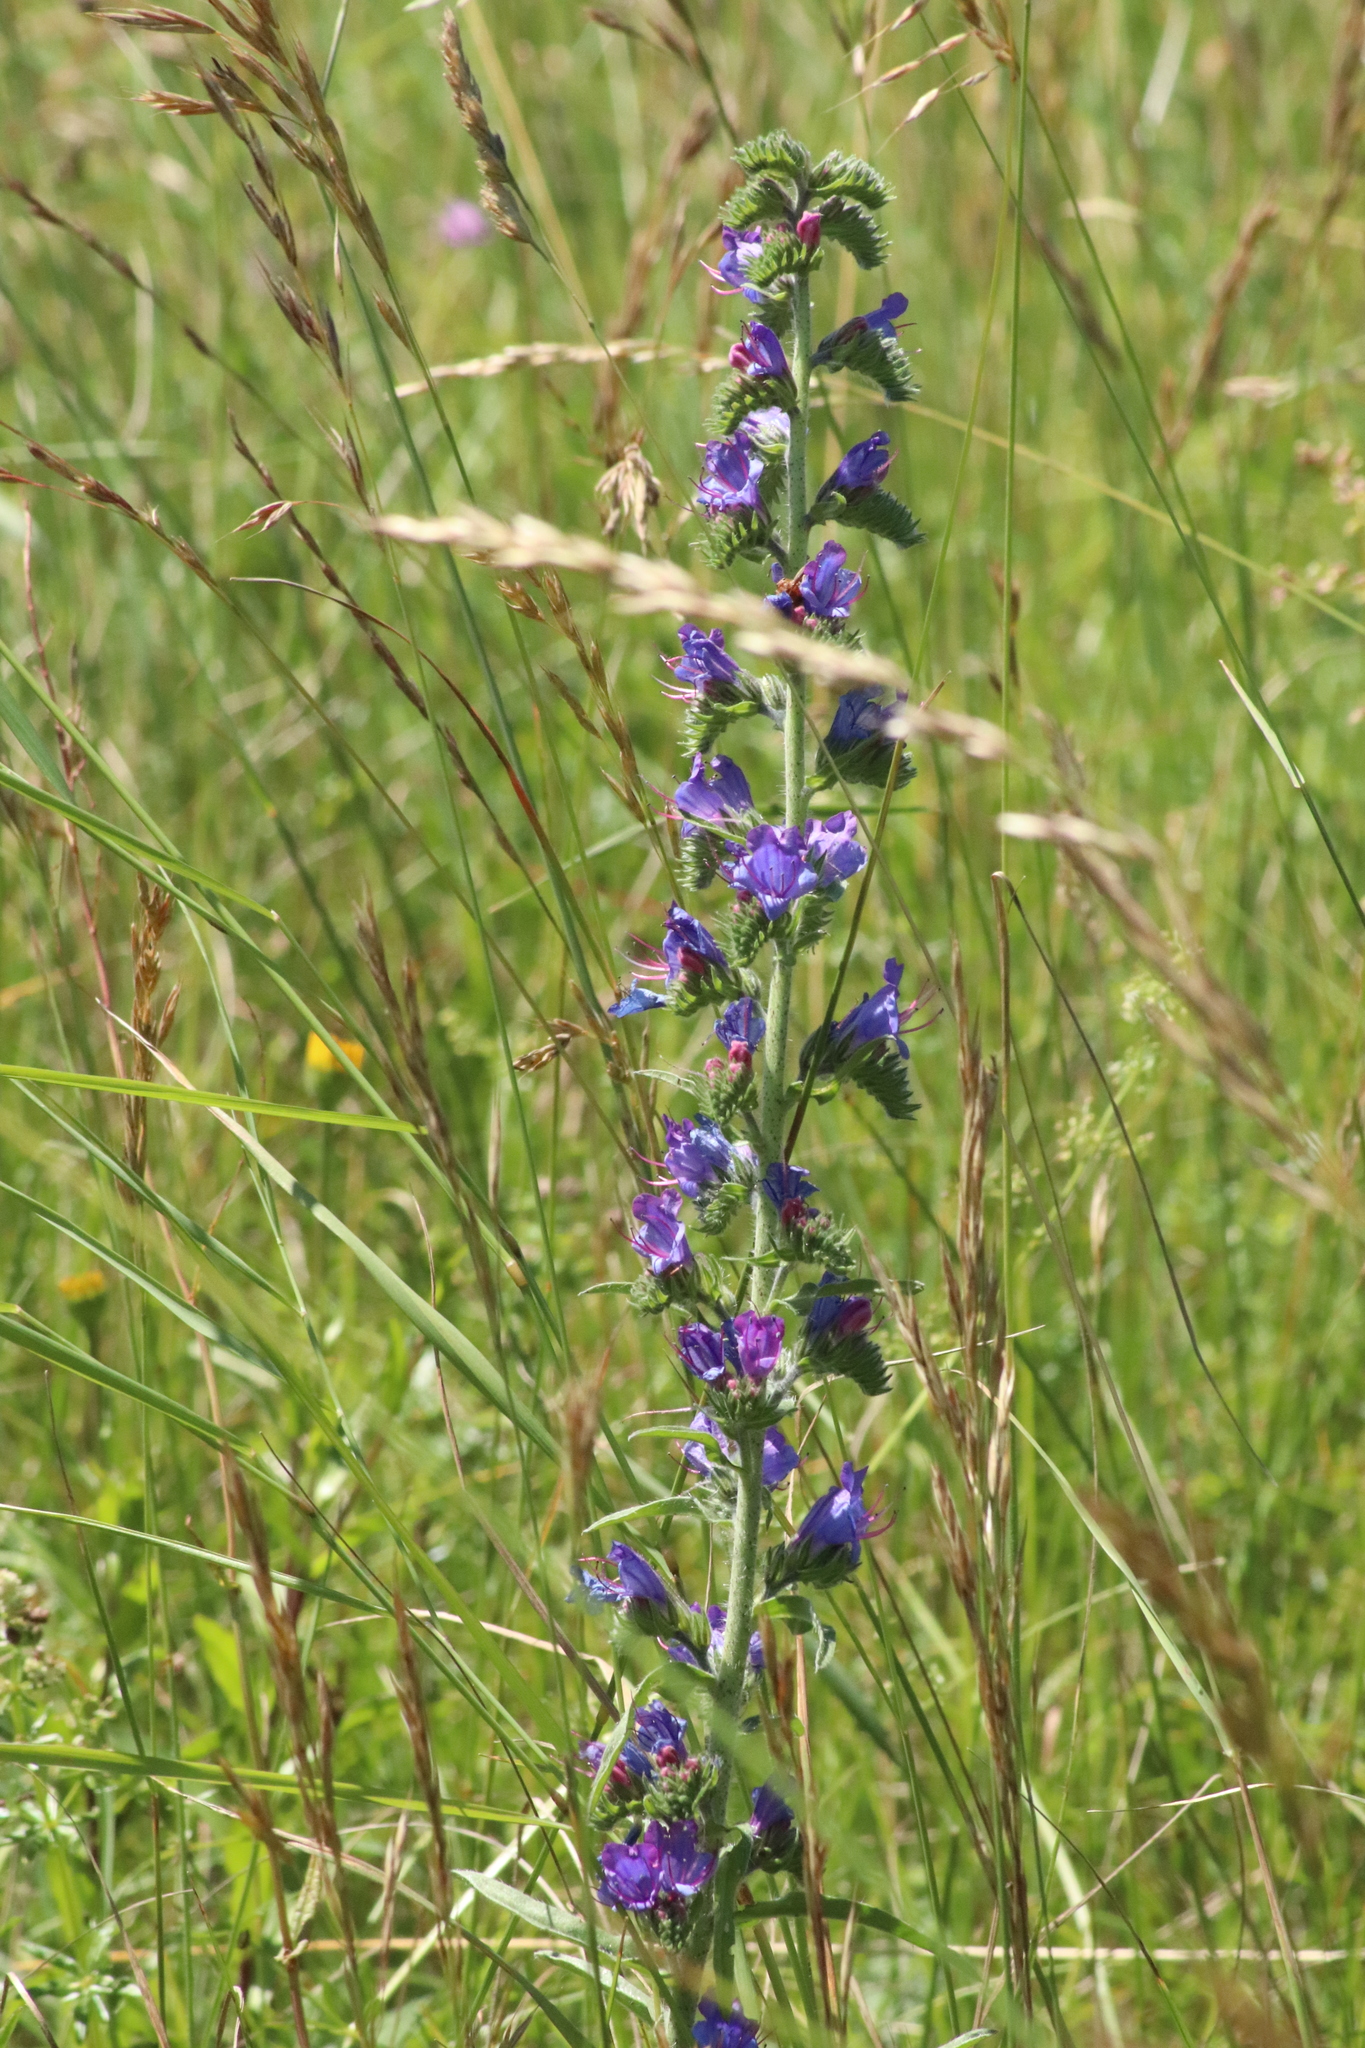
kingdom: Plantae
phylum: Tracheophyta
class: Magnoliopsida
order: Boraginales
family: Boraginaceae
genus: Echium
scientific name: Echium vulgare
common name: Common viper's bugloss
